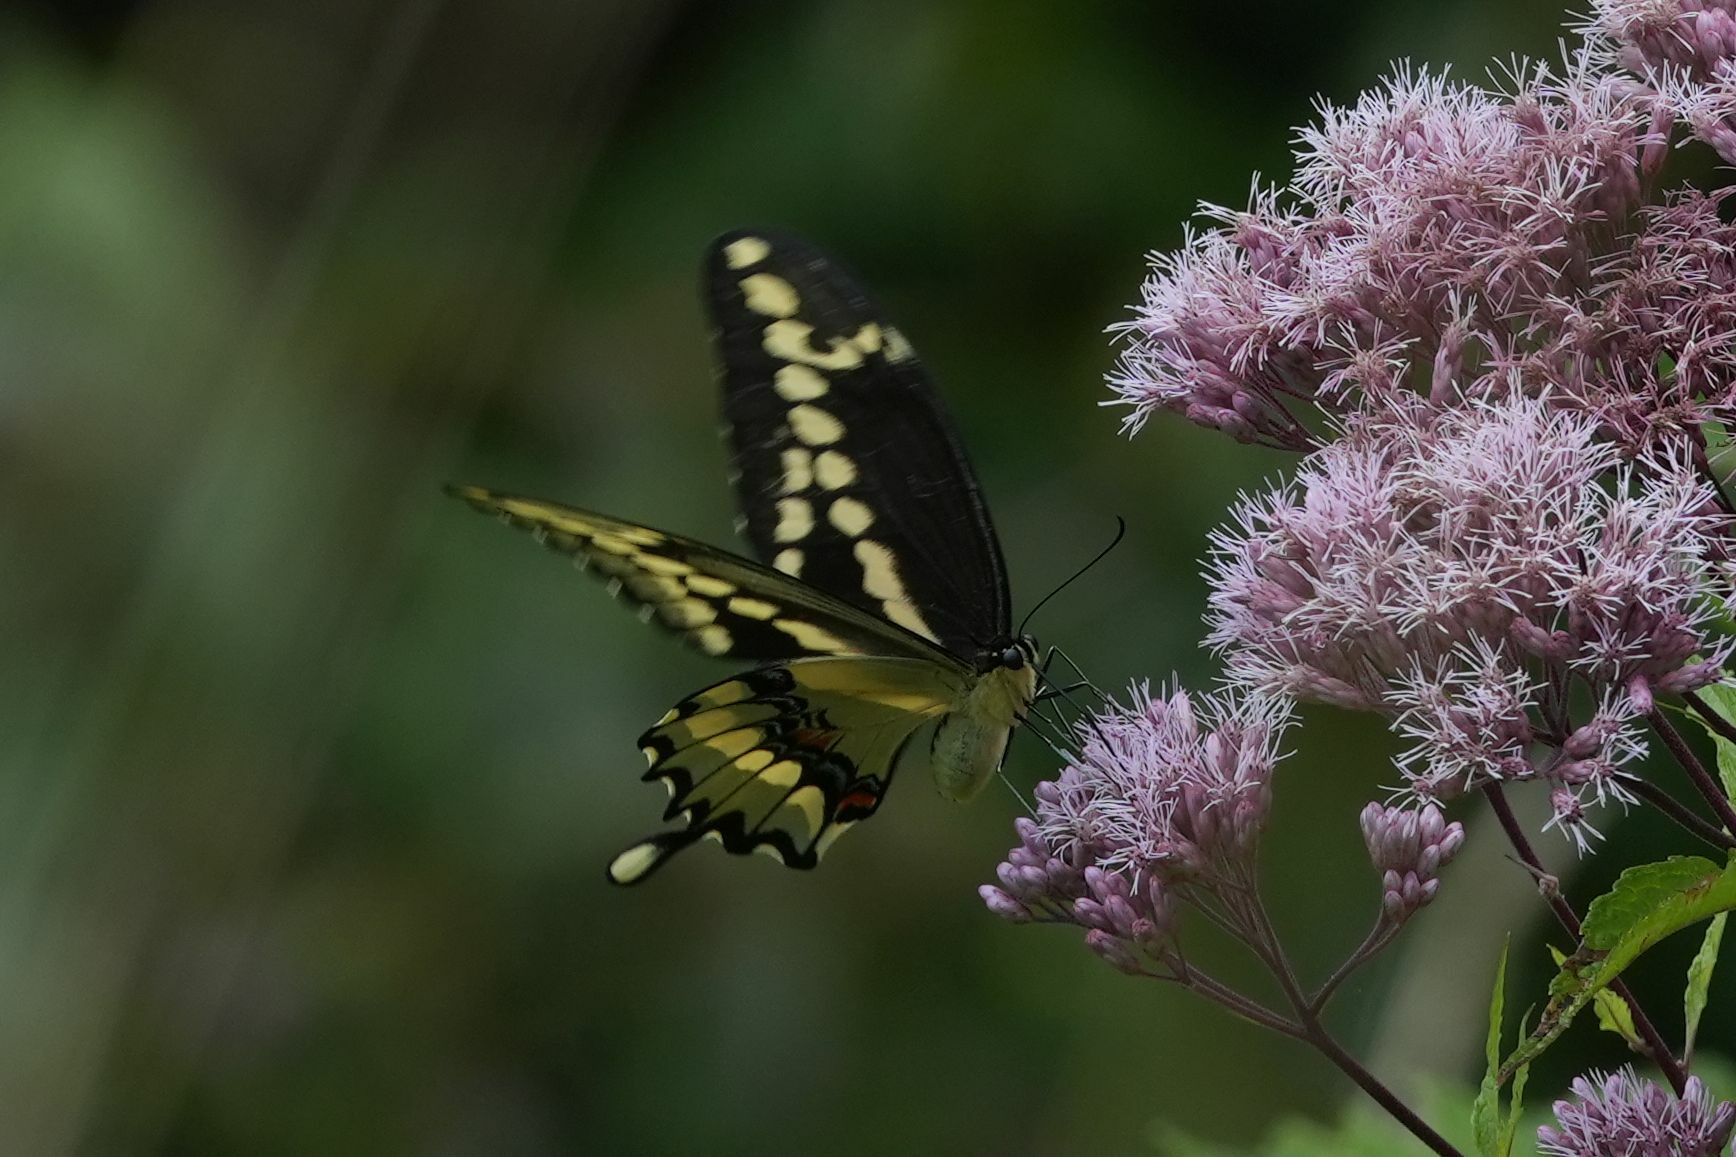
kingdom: Animalia
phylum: Arthropoda
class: Insecta
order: Lepidoptera
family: Papilionidae
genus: Papilio
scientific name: Papilio cresphontes
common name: Giant swallowtail
